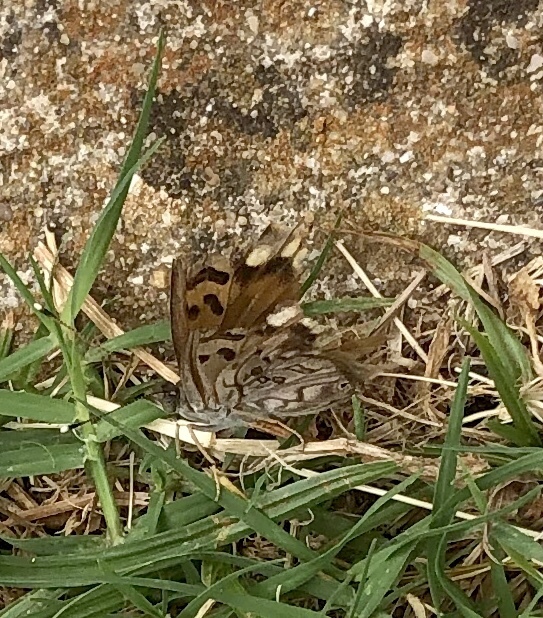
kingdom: Animalia
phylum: Arthropoda
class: Insecta
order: Lepidoptera
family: Nymphalidae
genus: Asterocampa
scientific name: Asterocampa celtis
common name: Hackberry emperor
